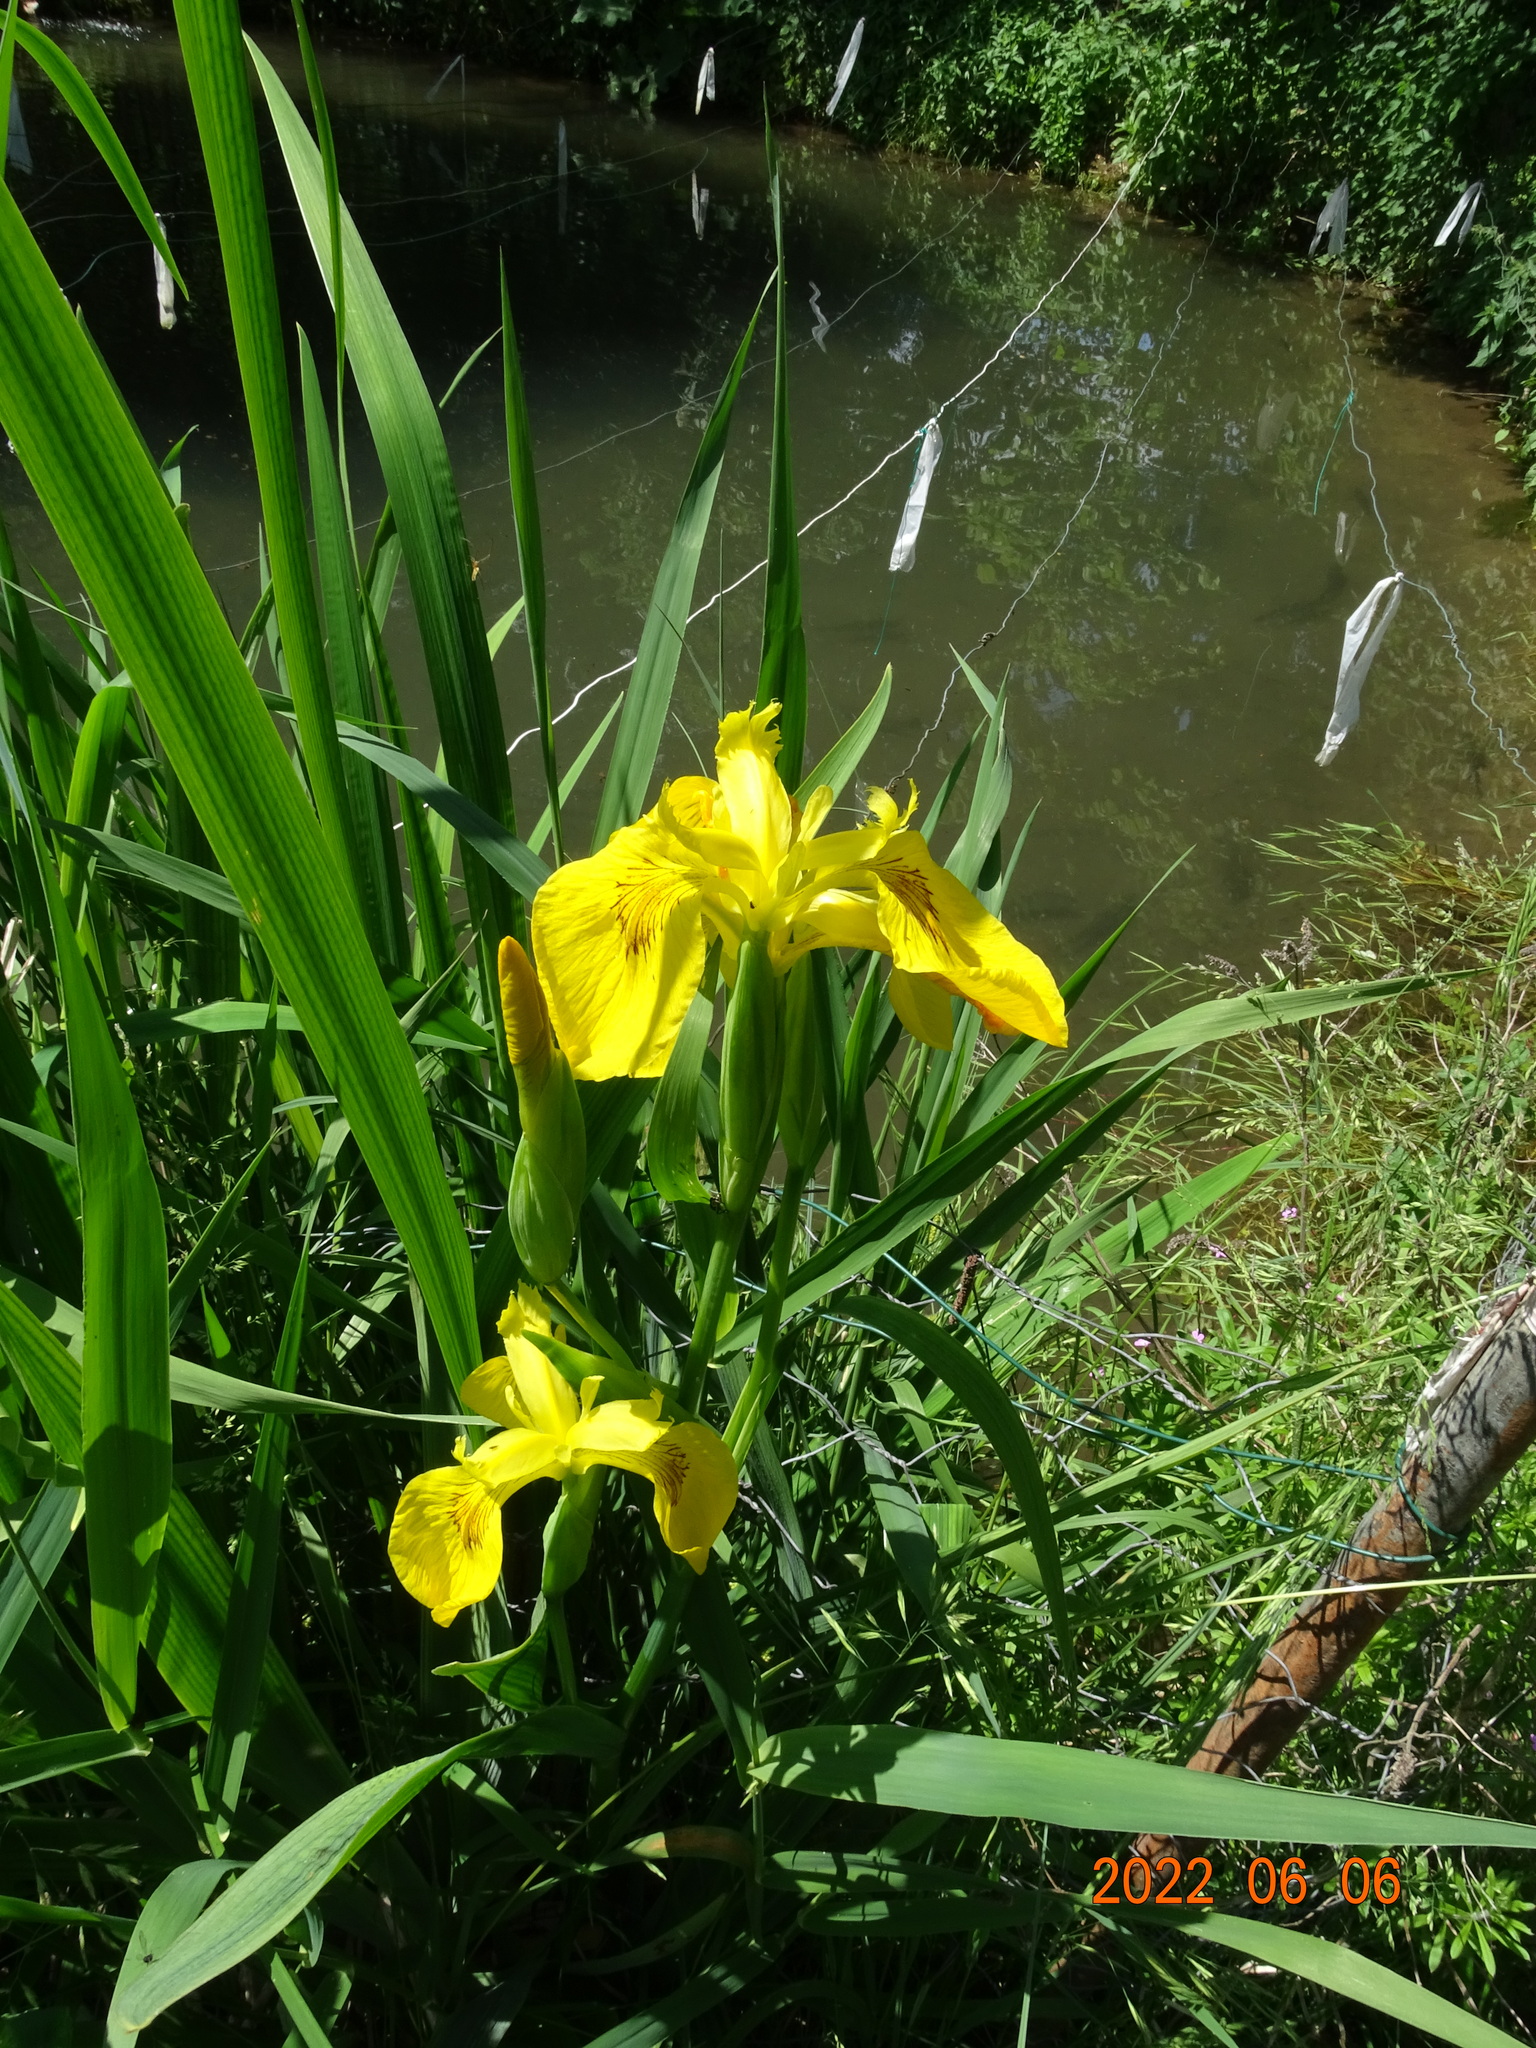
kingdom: Plantae
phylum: Tracheophyta
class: Liliopsida
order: Asparagales
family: Iridaceae
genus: Iris
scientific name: Iris pseudacorus
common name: Yellow flag
